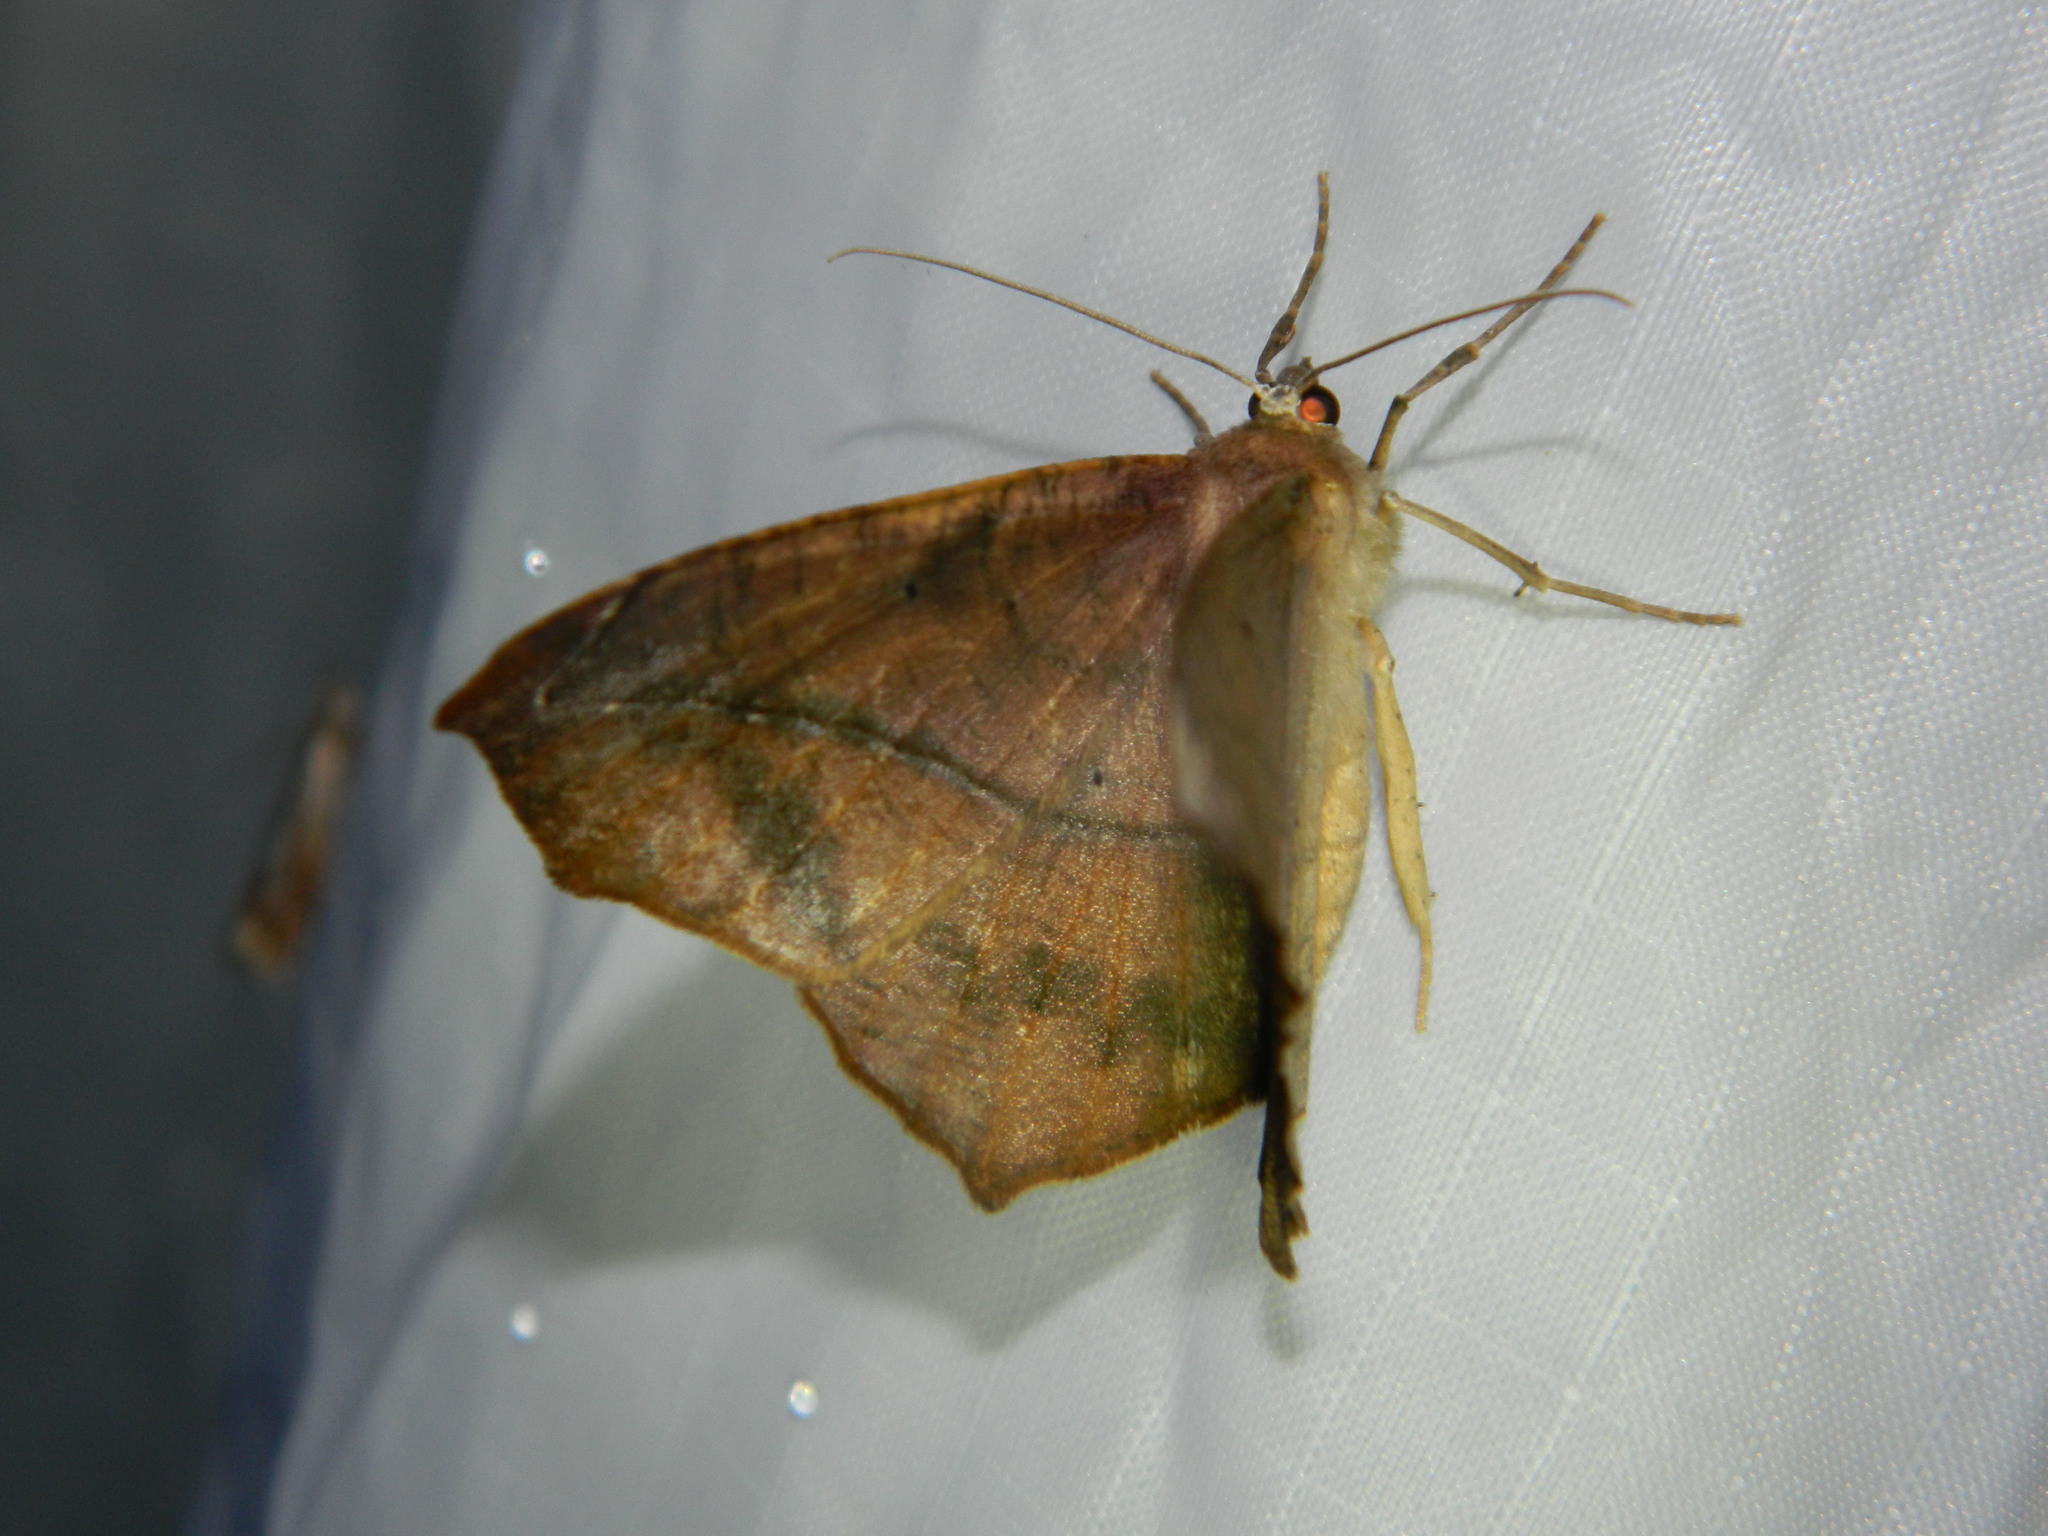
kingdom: Animalia
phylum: Arthropoda
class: Insecta
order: Lepidoptera
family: Geometridae
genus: Prochoerodes
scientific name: Prochoerodes lineola
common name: Large maple spanworm
